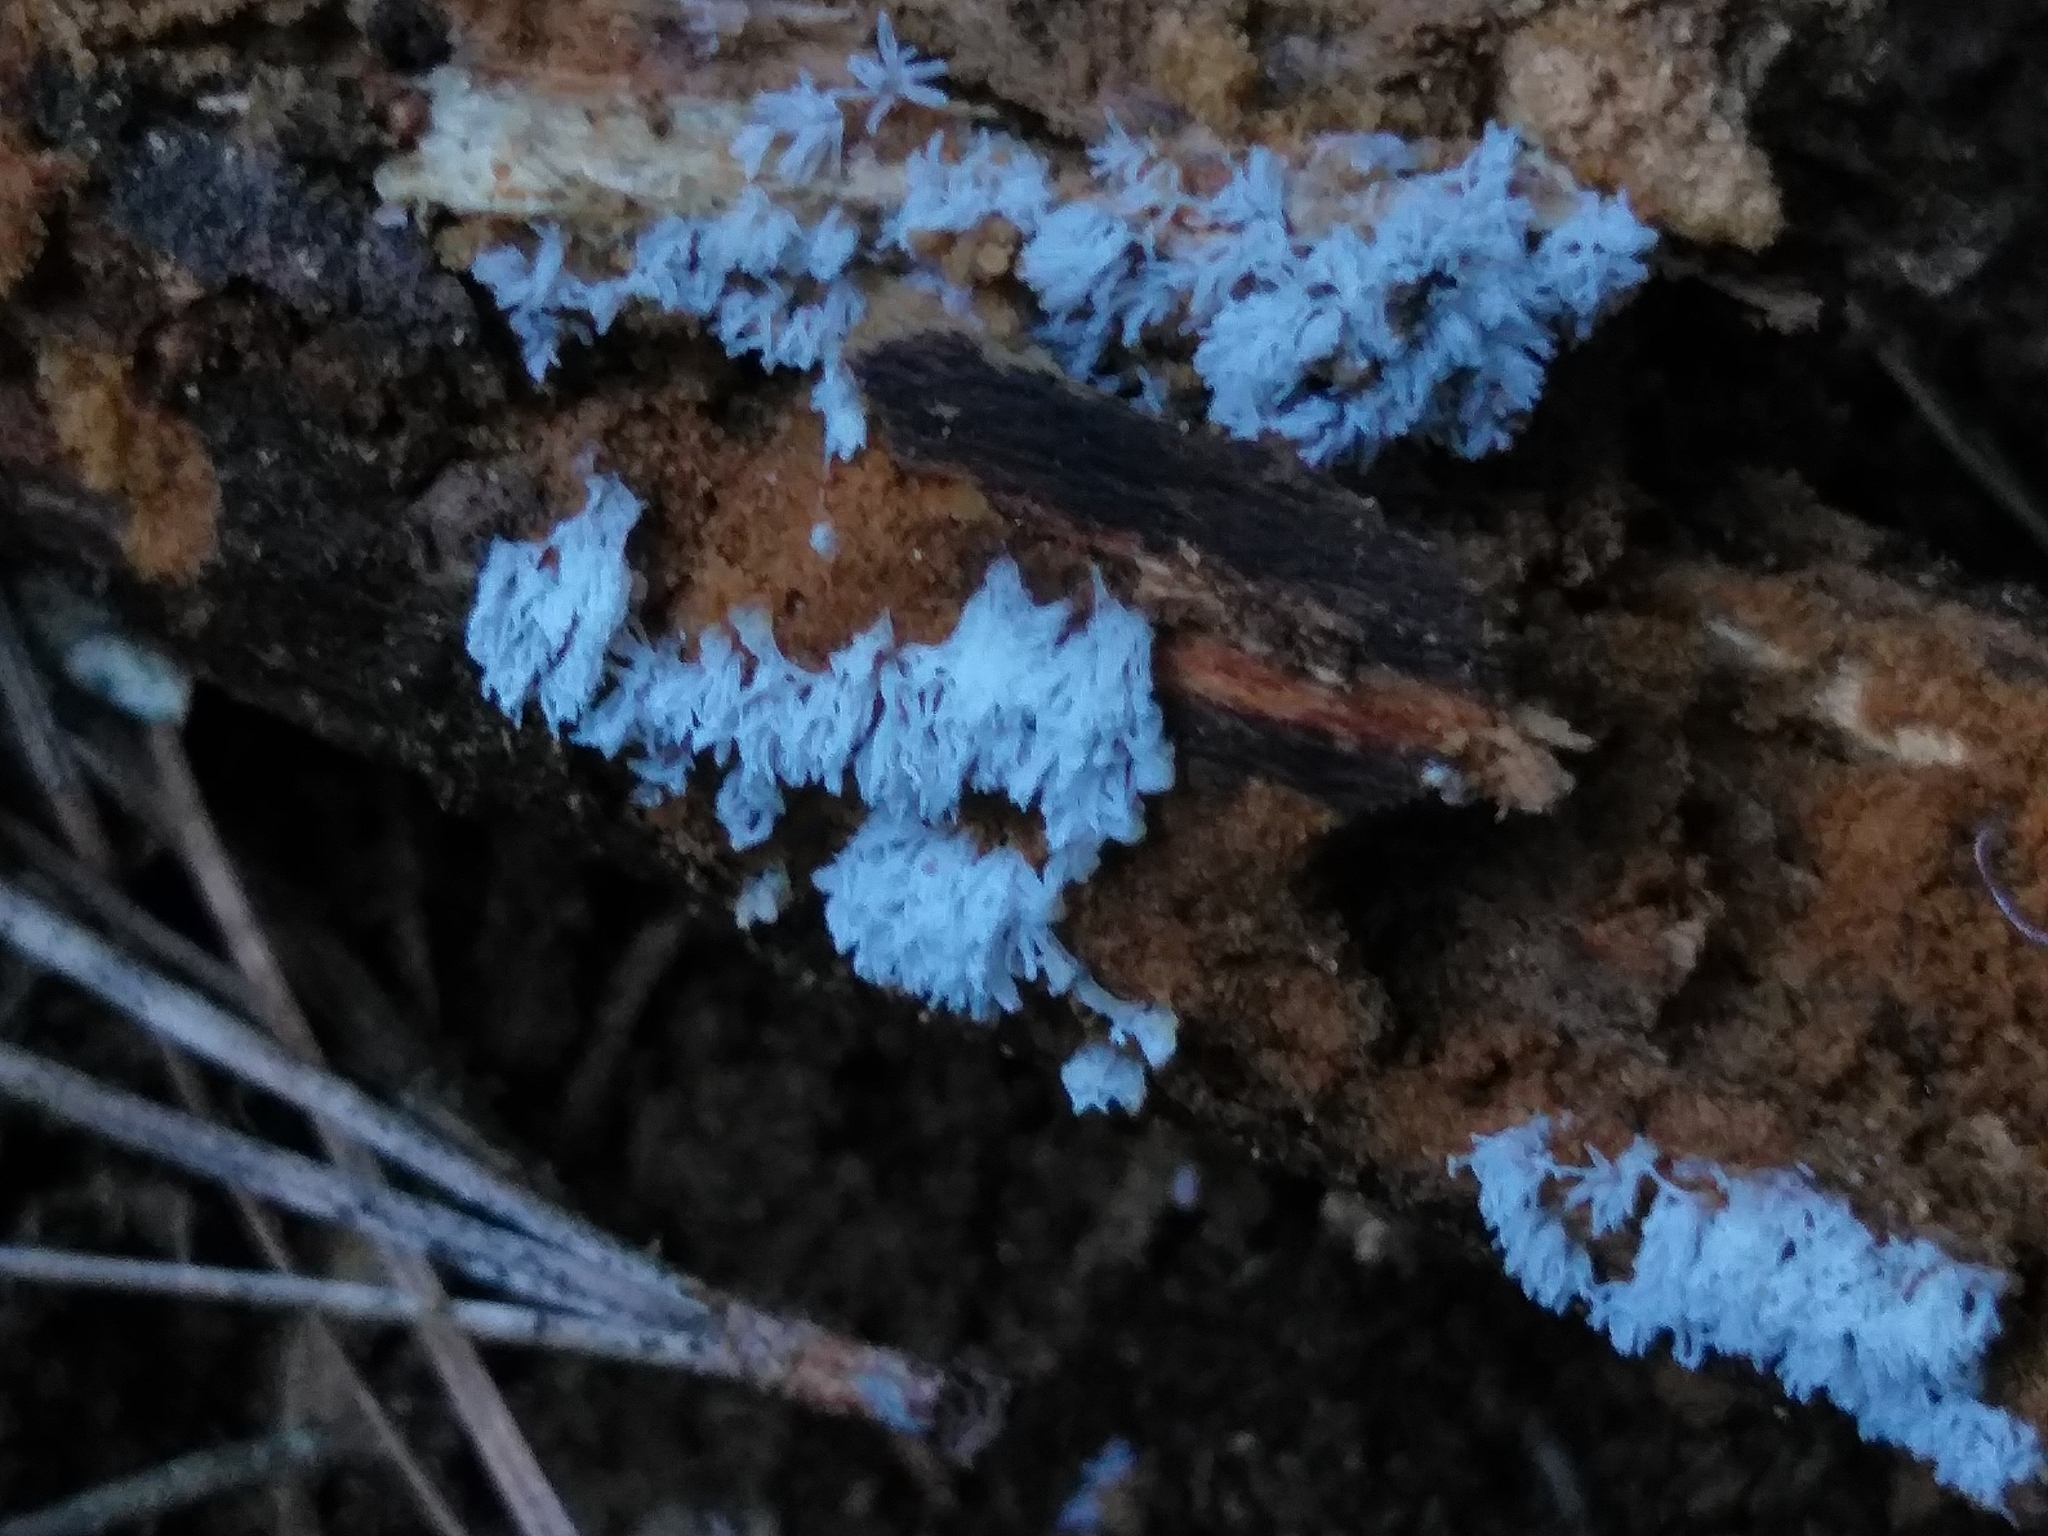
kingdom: Protozoa
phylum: Mycetozoa
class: Protosteliomycetes
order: Ceratiomyxales
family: Ceratiomyxaceae
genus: Ceratiomyxa
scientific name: Ceratiomyxa fruticulosa
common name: Honeycomb coral slime mold
